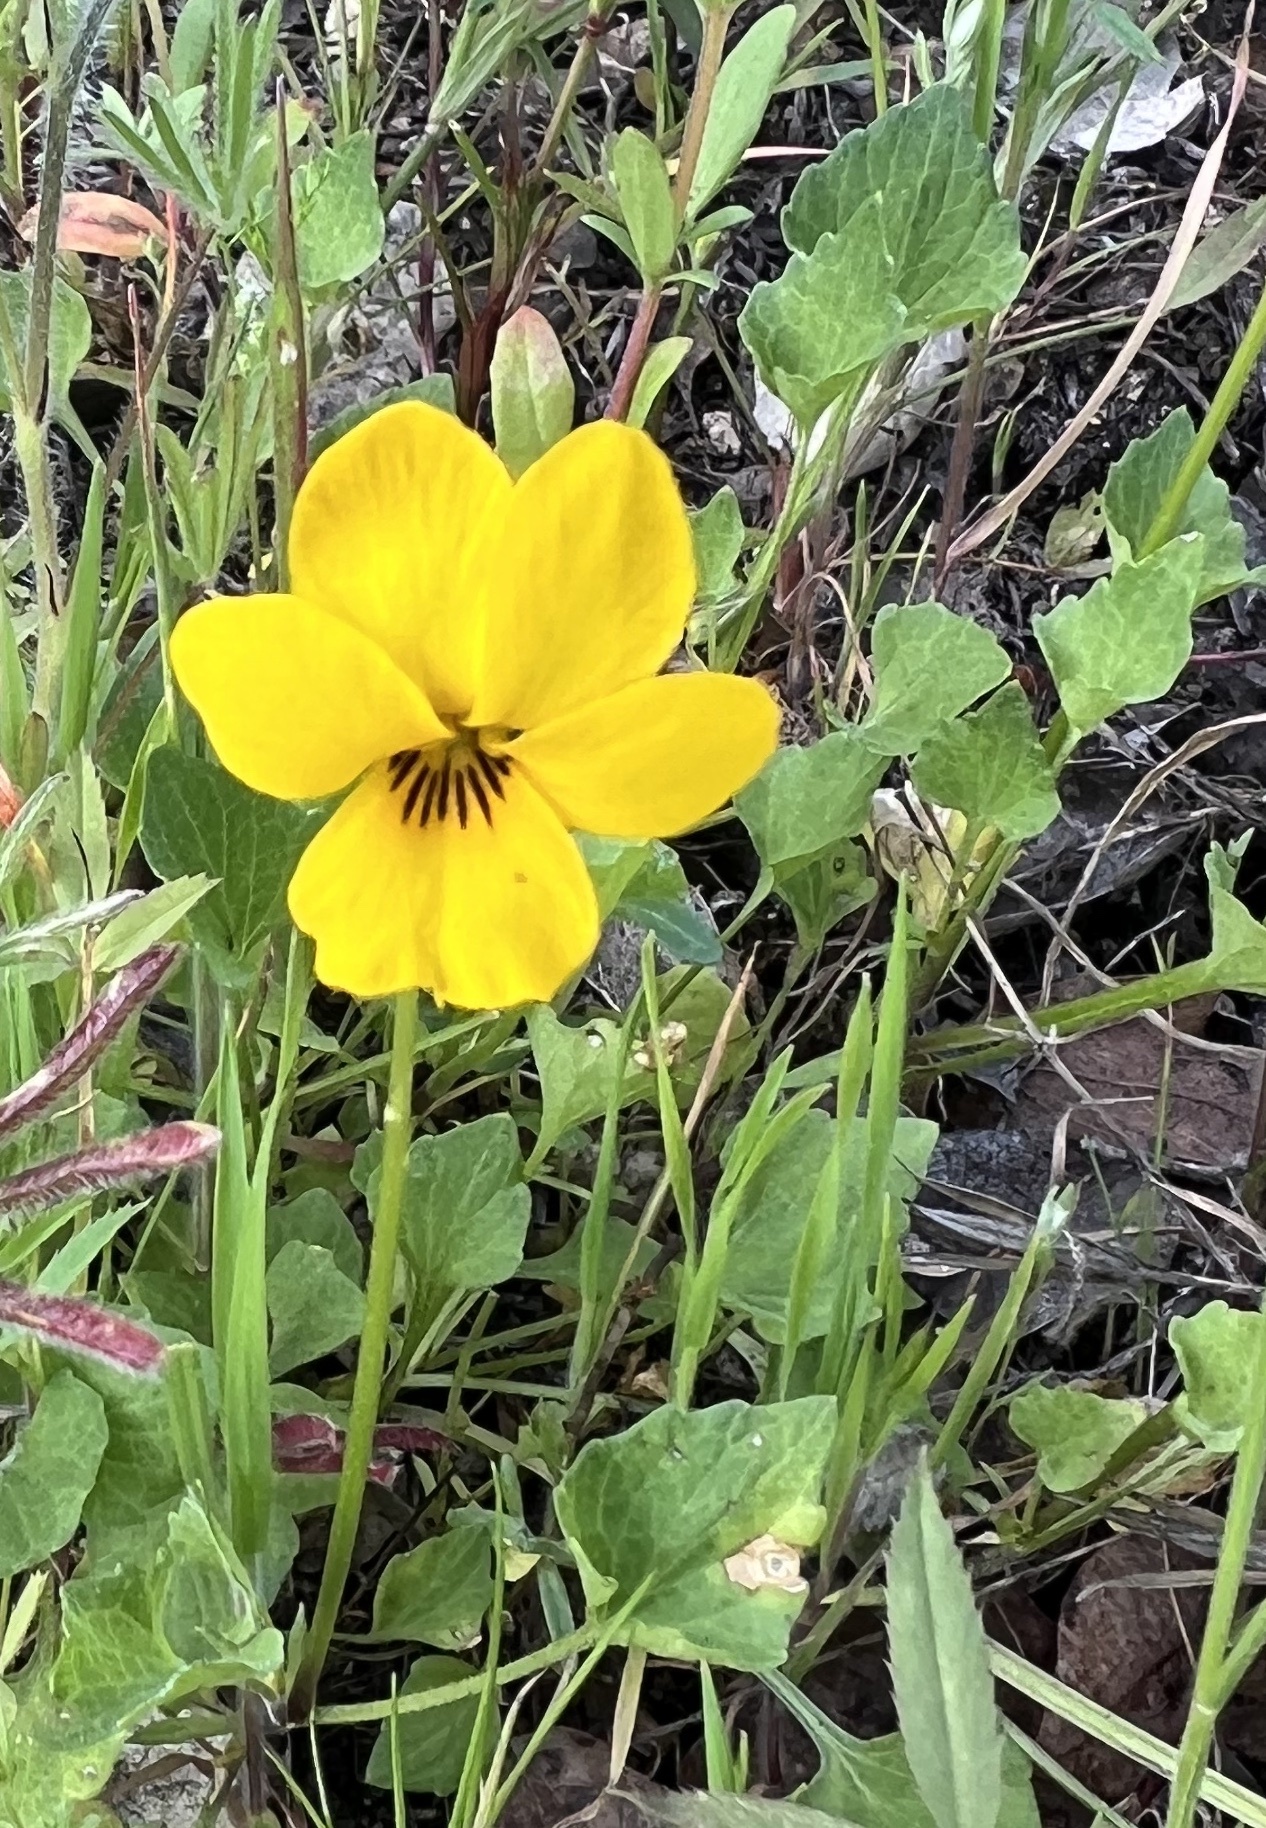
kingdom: Plantae
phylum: Tracheophyta
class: Magnoliopsida
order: Malpighiales
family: Violaceae
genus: Viola
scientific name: Viola pedunculata
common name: California golden violet
